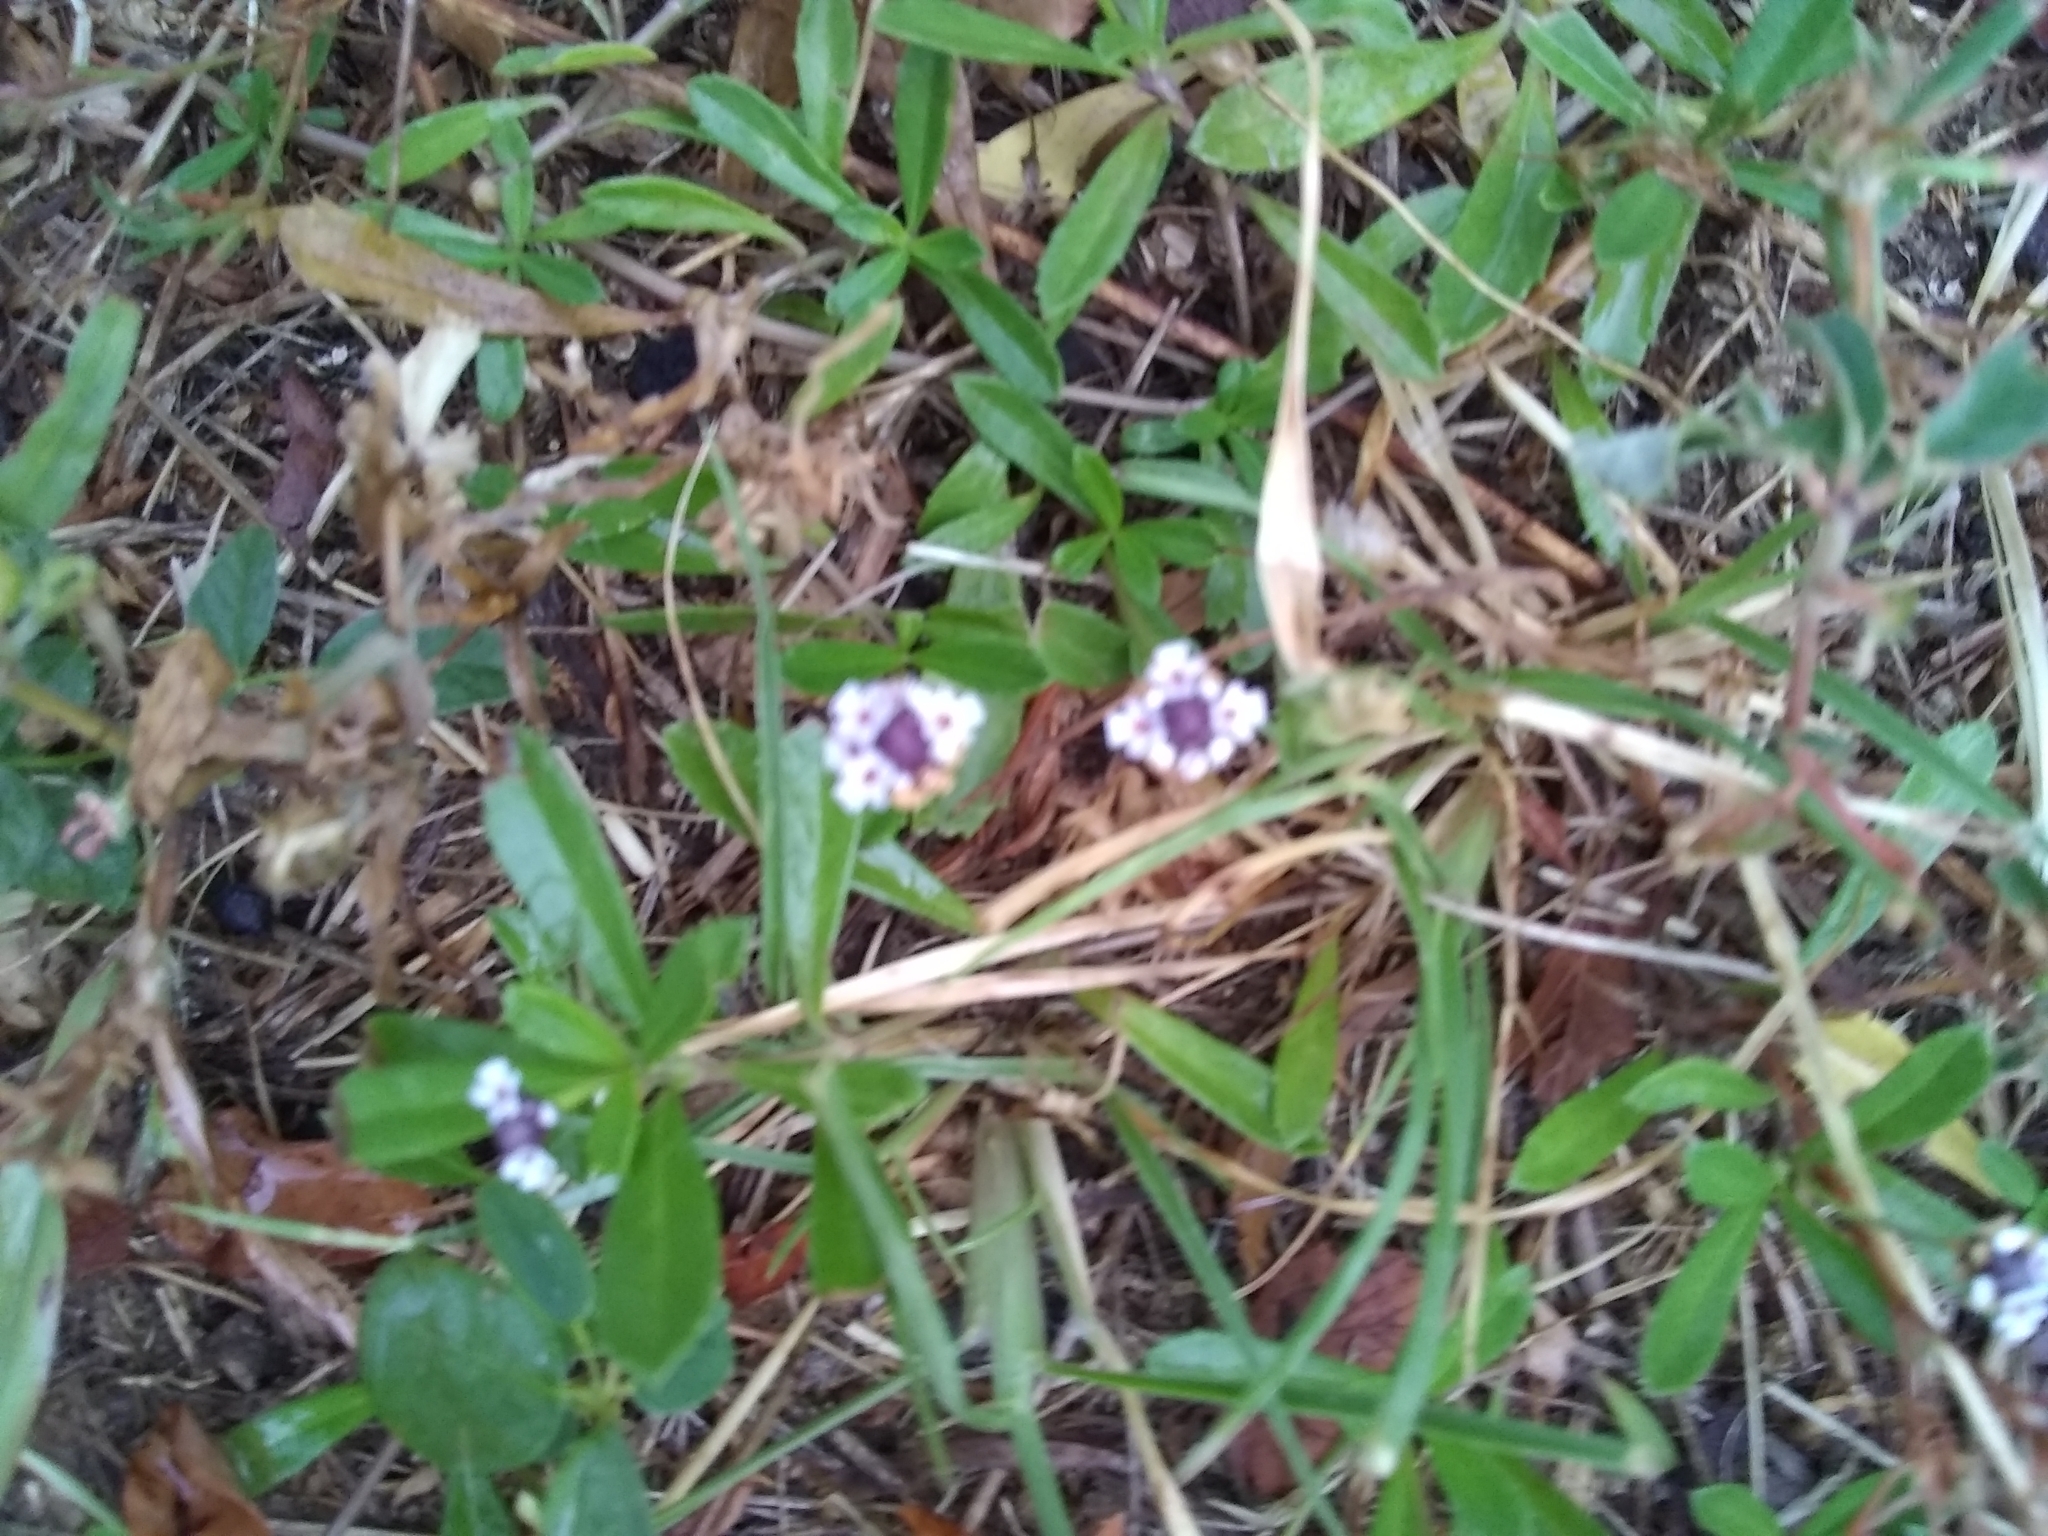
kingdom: Plantae
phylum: Tracheophyta
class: Magnoliopsida
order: Lamiales
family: Verbenaceae
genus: Phyla
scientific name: Phyla nodiflora
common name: Frogfruit
